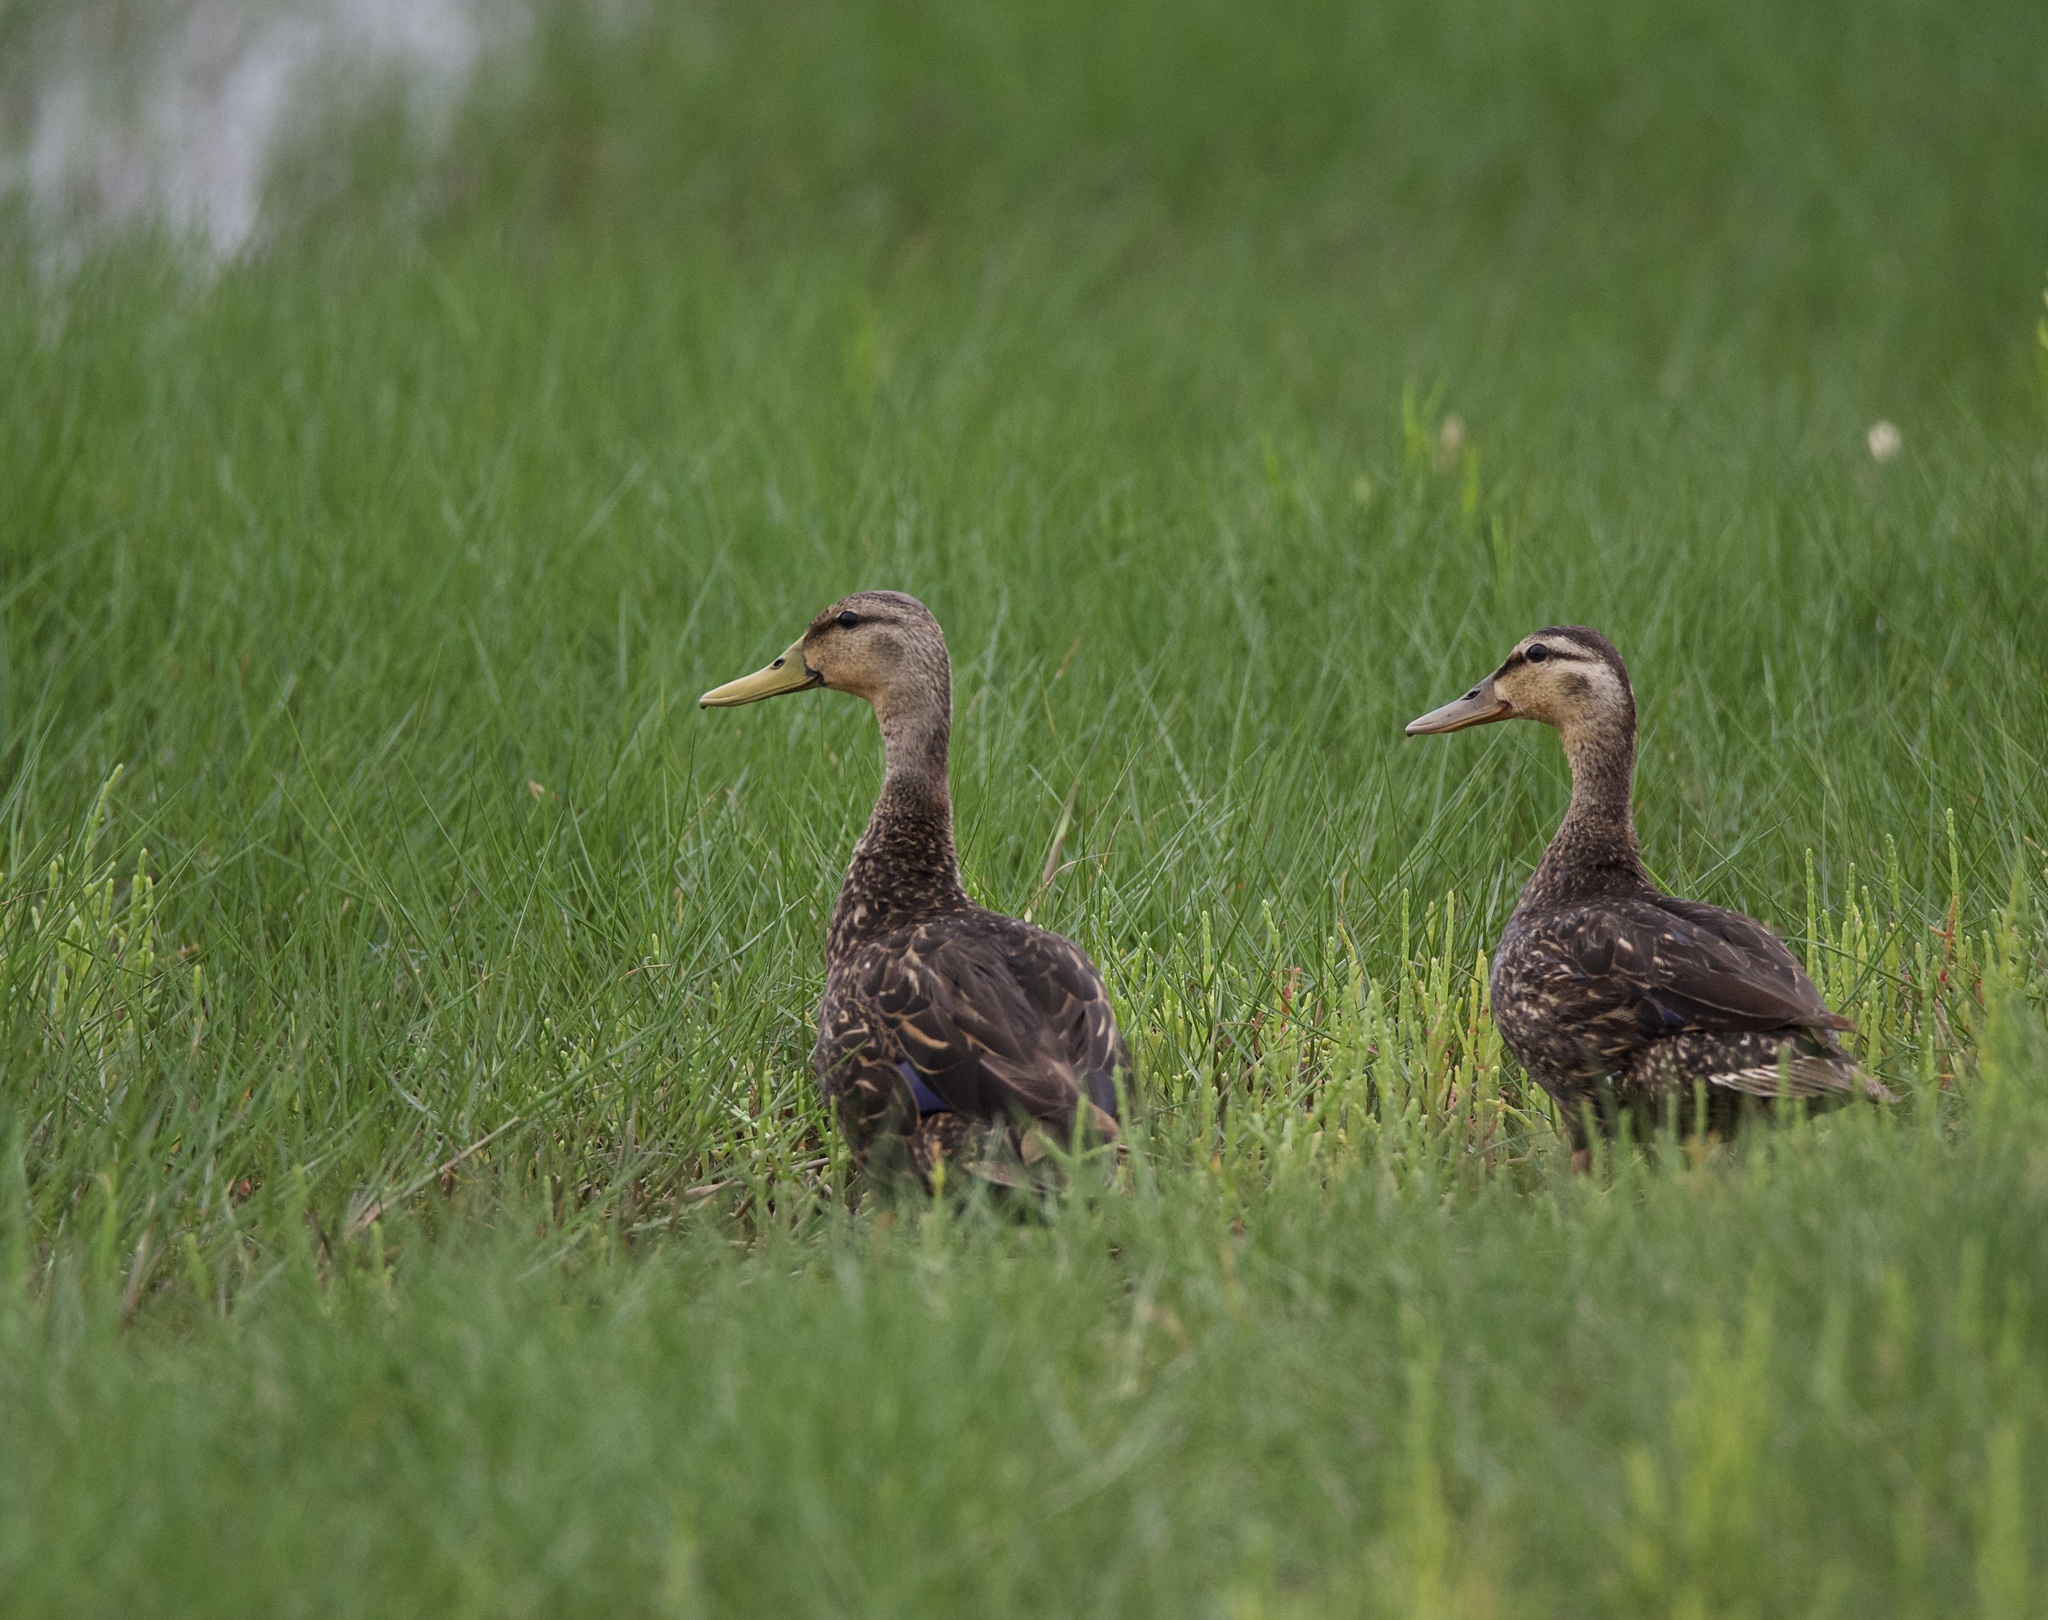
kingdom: Animalia
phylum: Chordata
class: Aves
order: Anseriformes
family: Anatidae
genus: Anas
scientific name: Anas fulvigula
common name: Mottled duck
